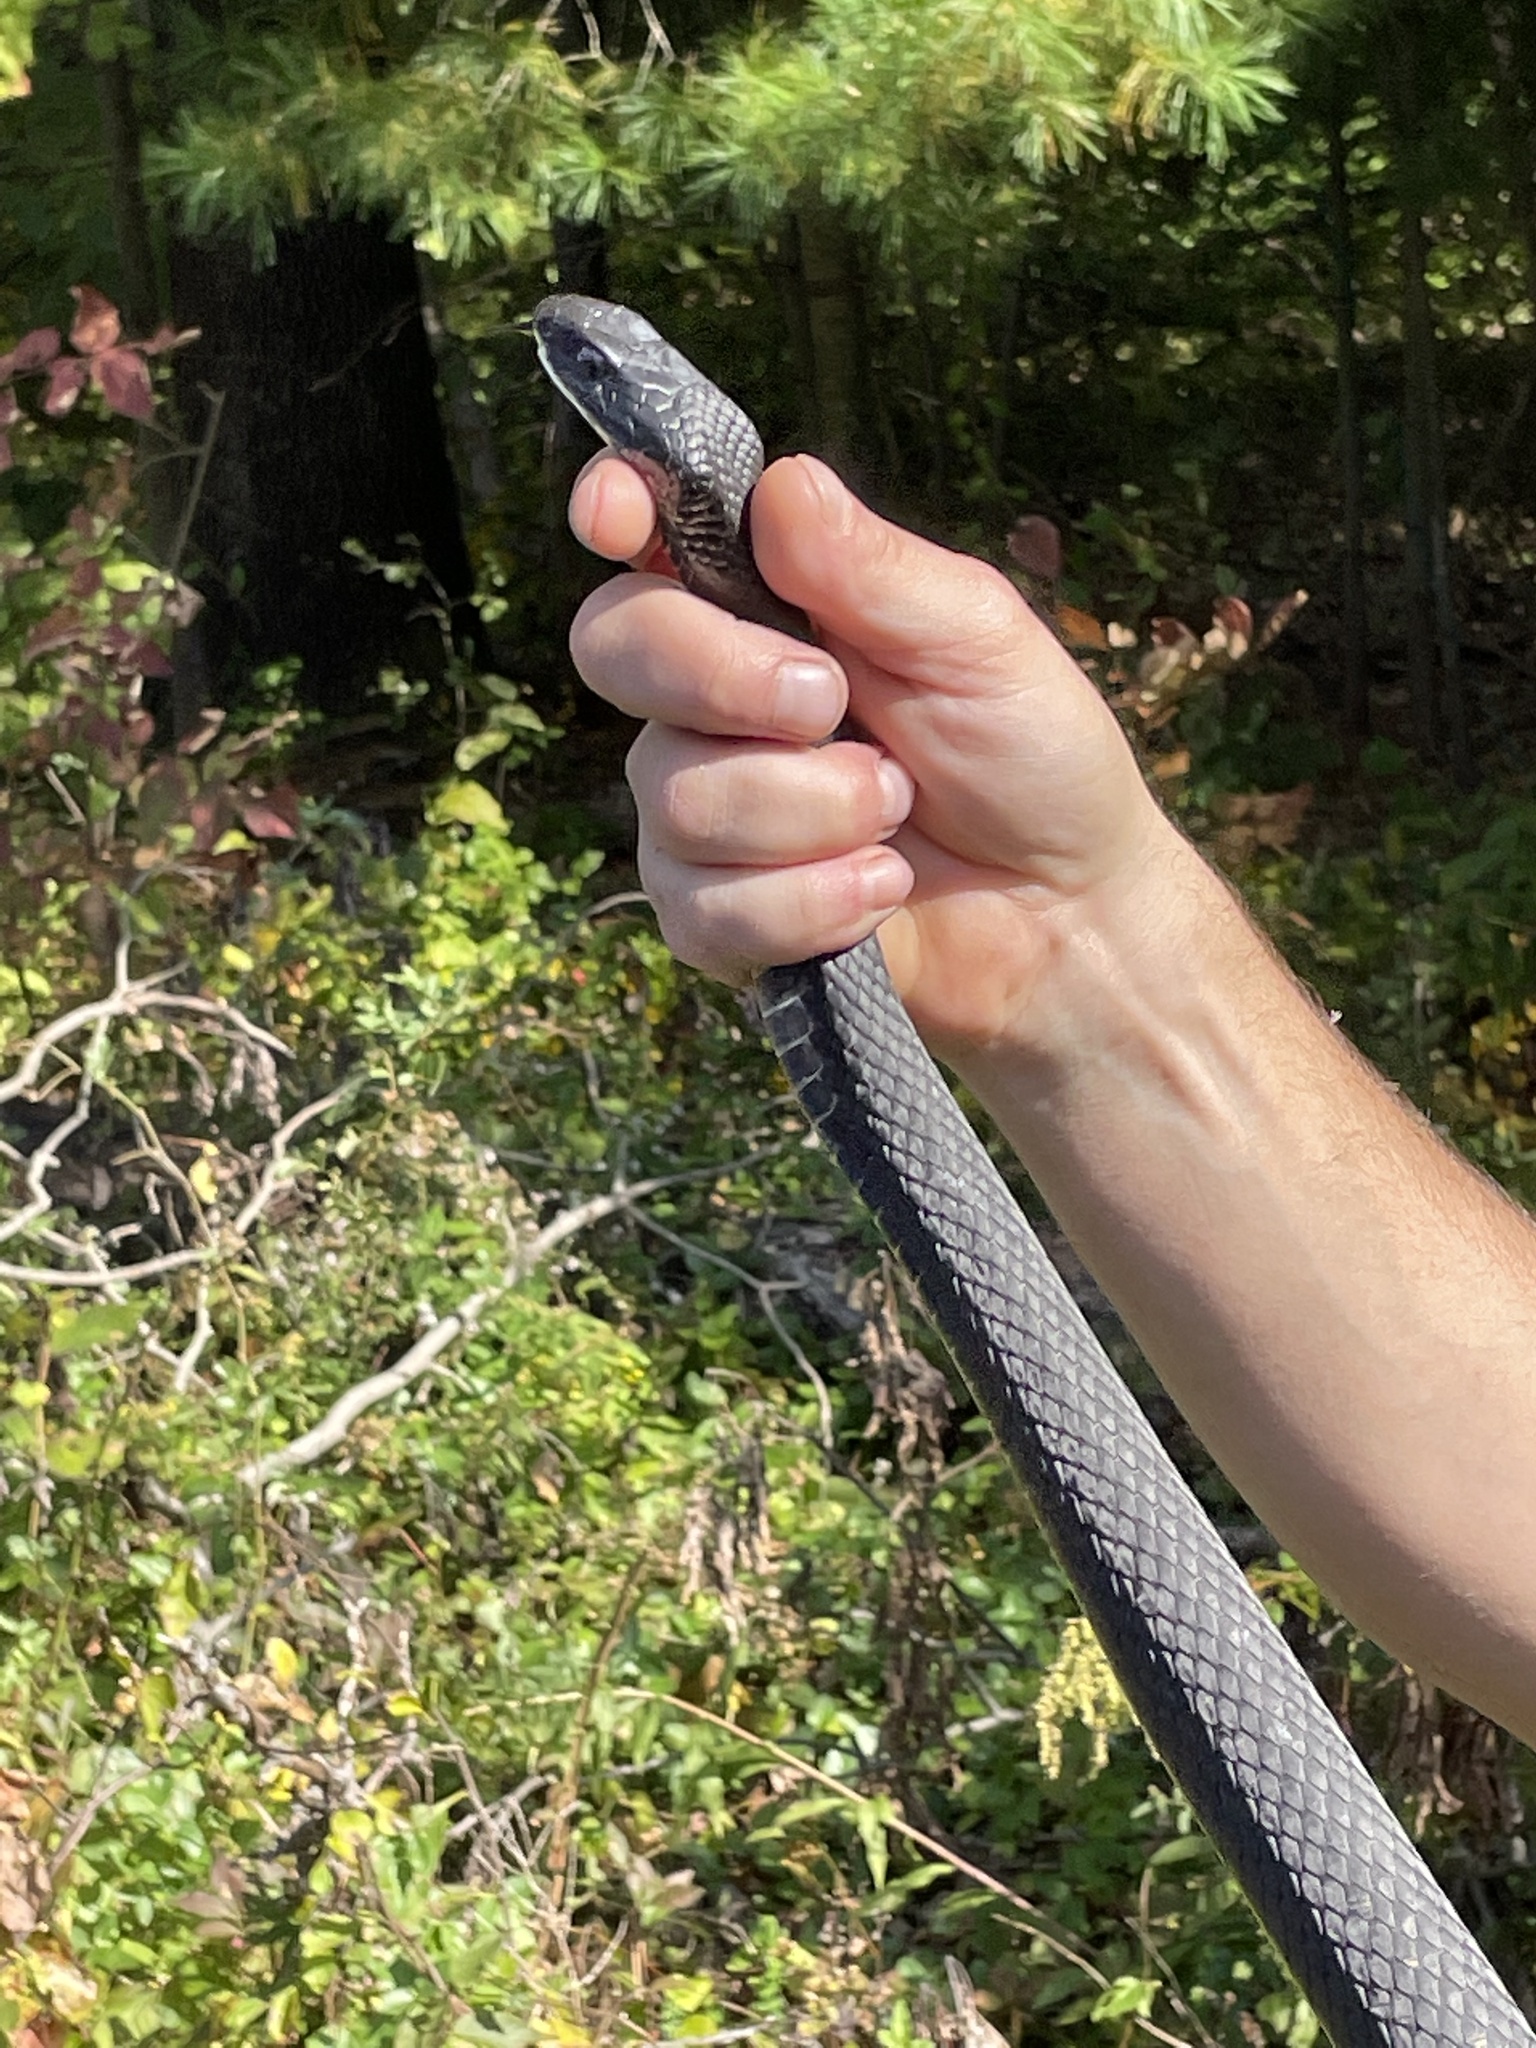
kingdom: Animalia
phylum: Chordata
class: Squamata
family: Colubridae
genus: Coluber
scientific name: Coluber constrictor
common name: Eastern racer
